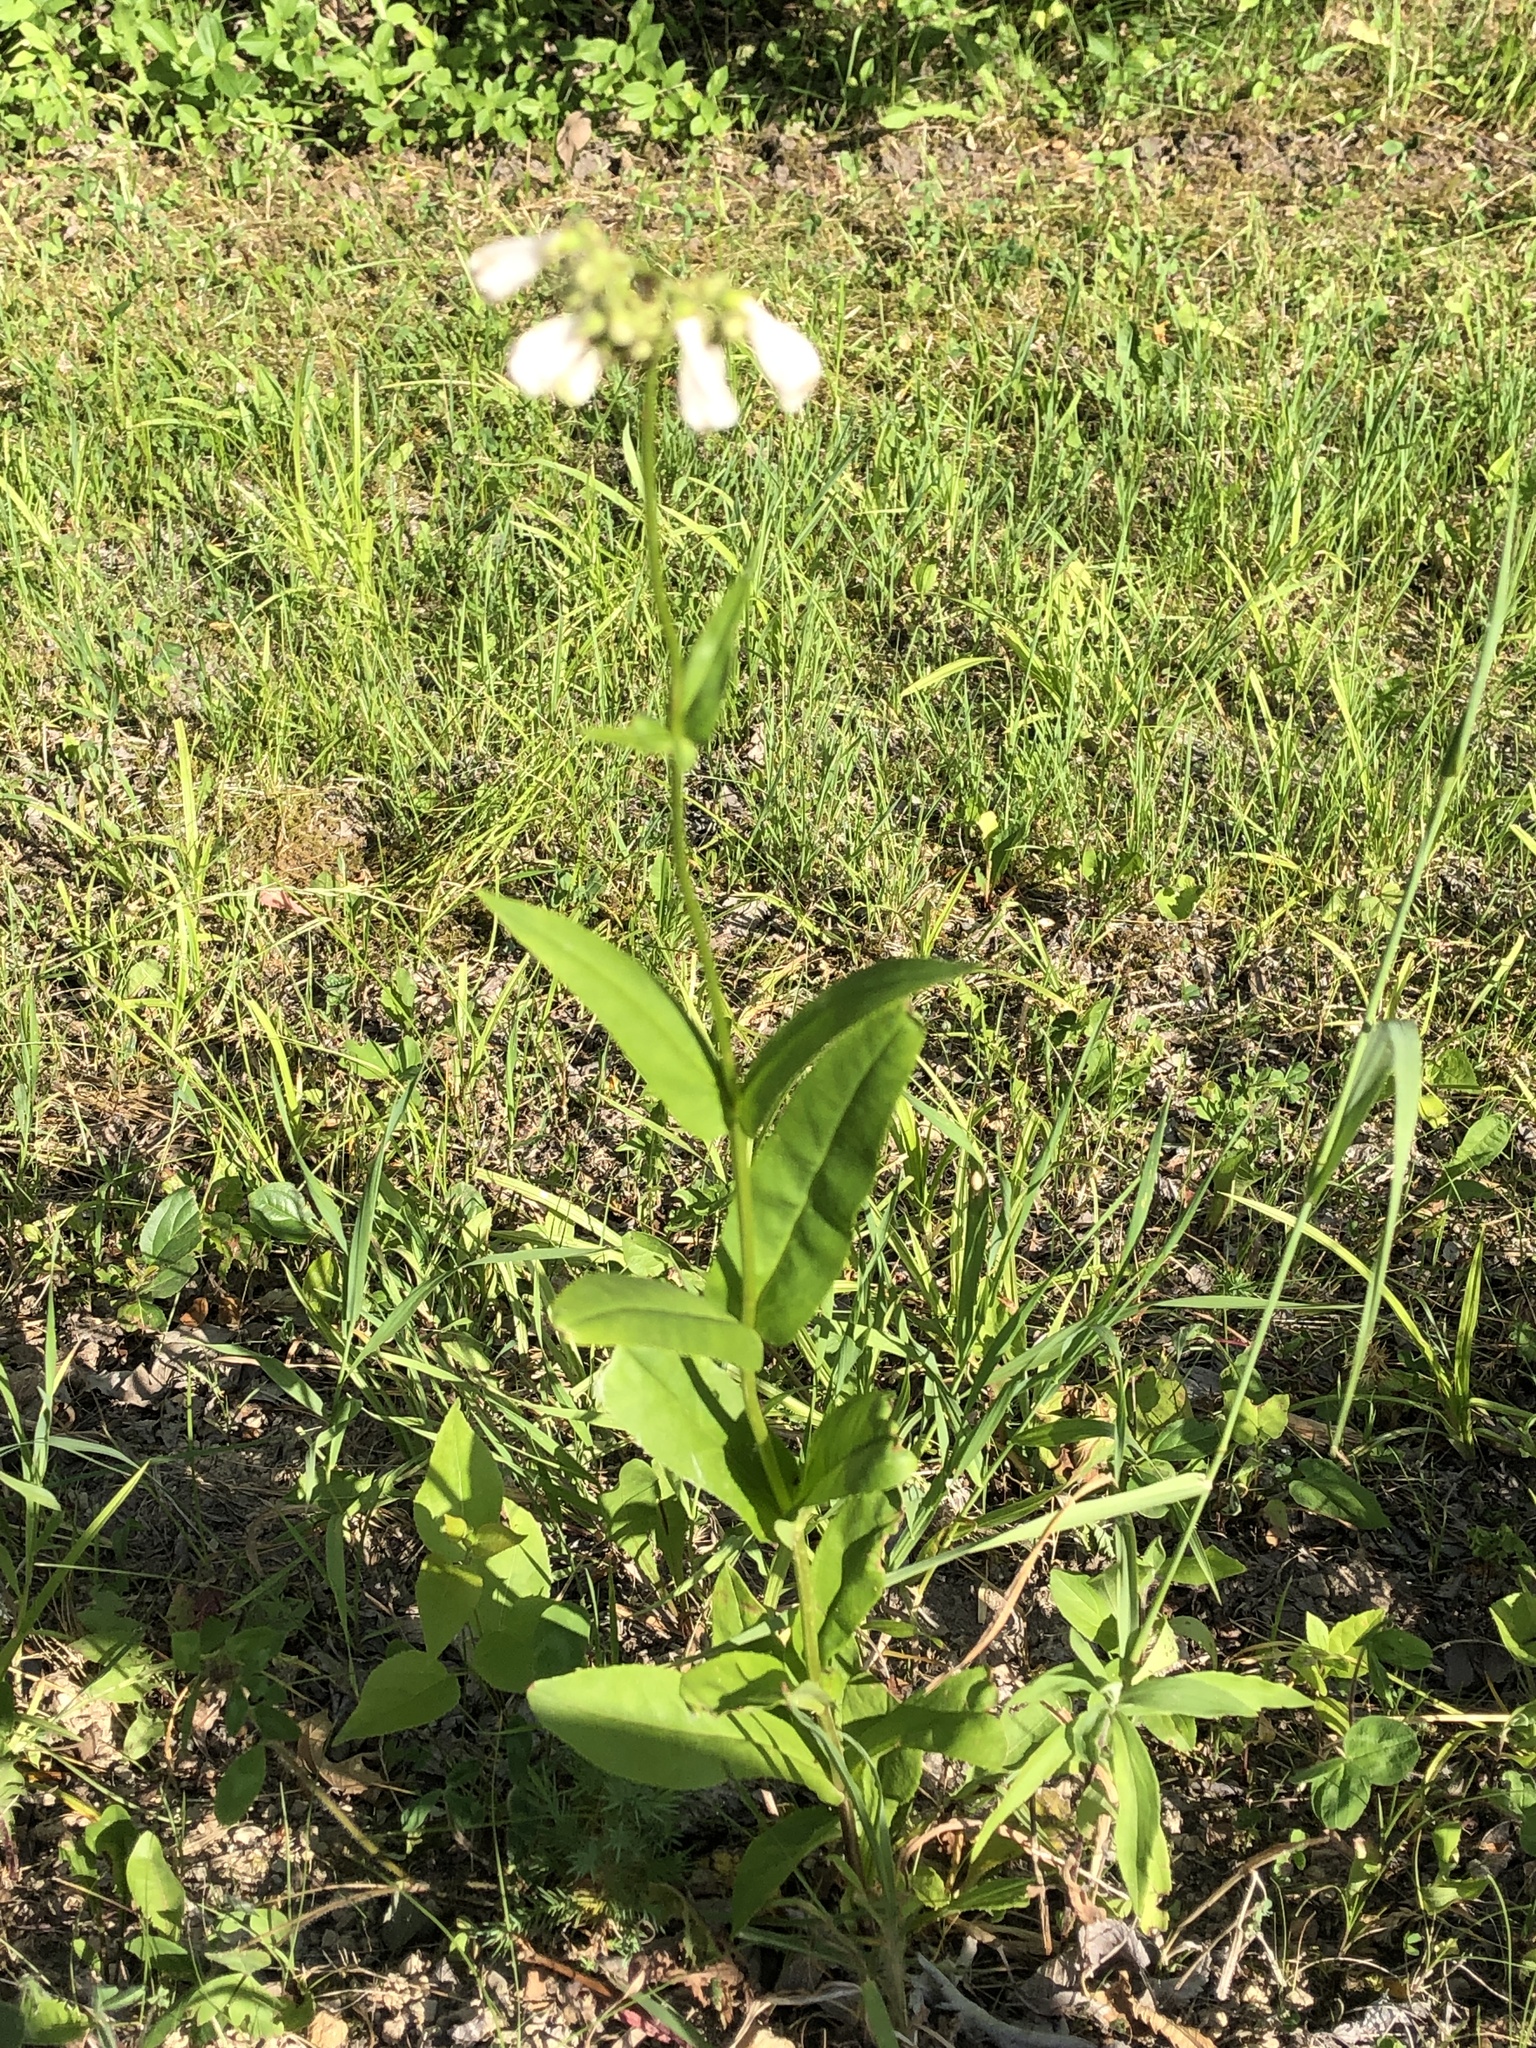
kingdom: Plantae
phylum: Tracheophyta
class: Magnoliopsida
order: Lamiales
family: Plantaginaceae
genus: Penstemon
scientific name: Penstemon digitalis
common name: Foxglove beardtongue
